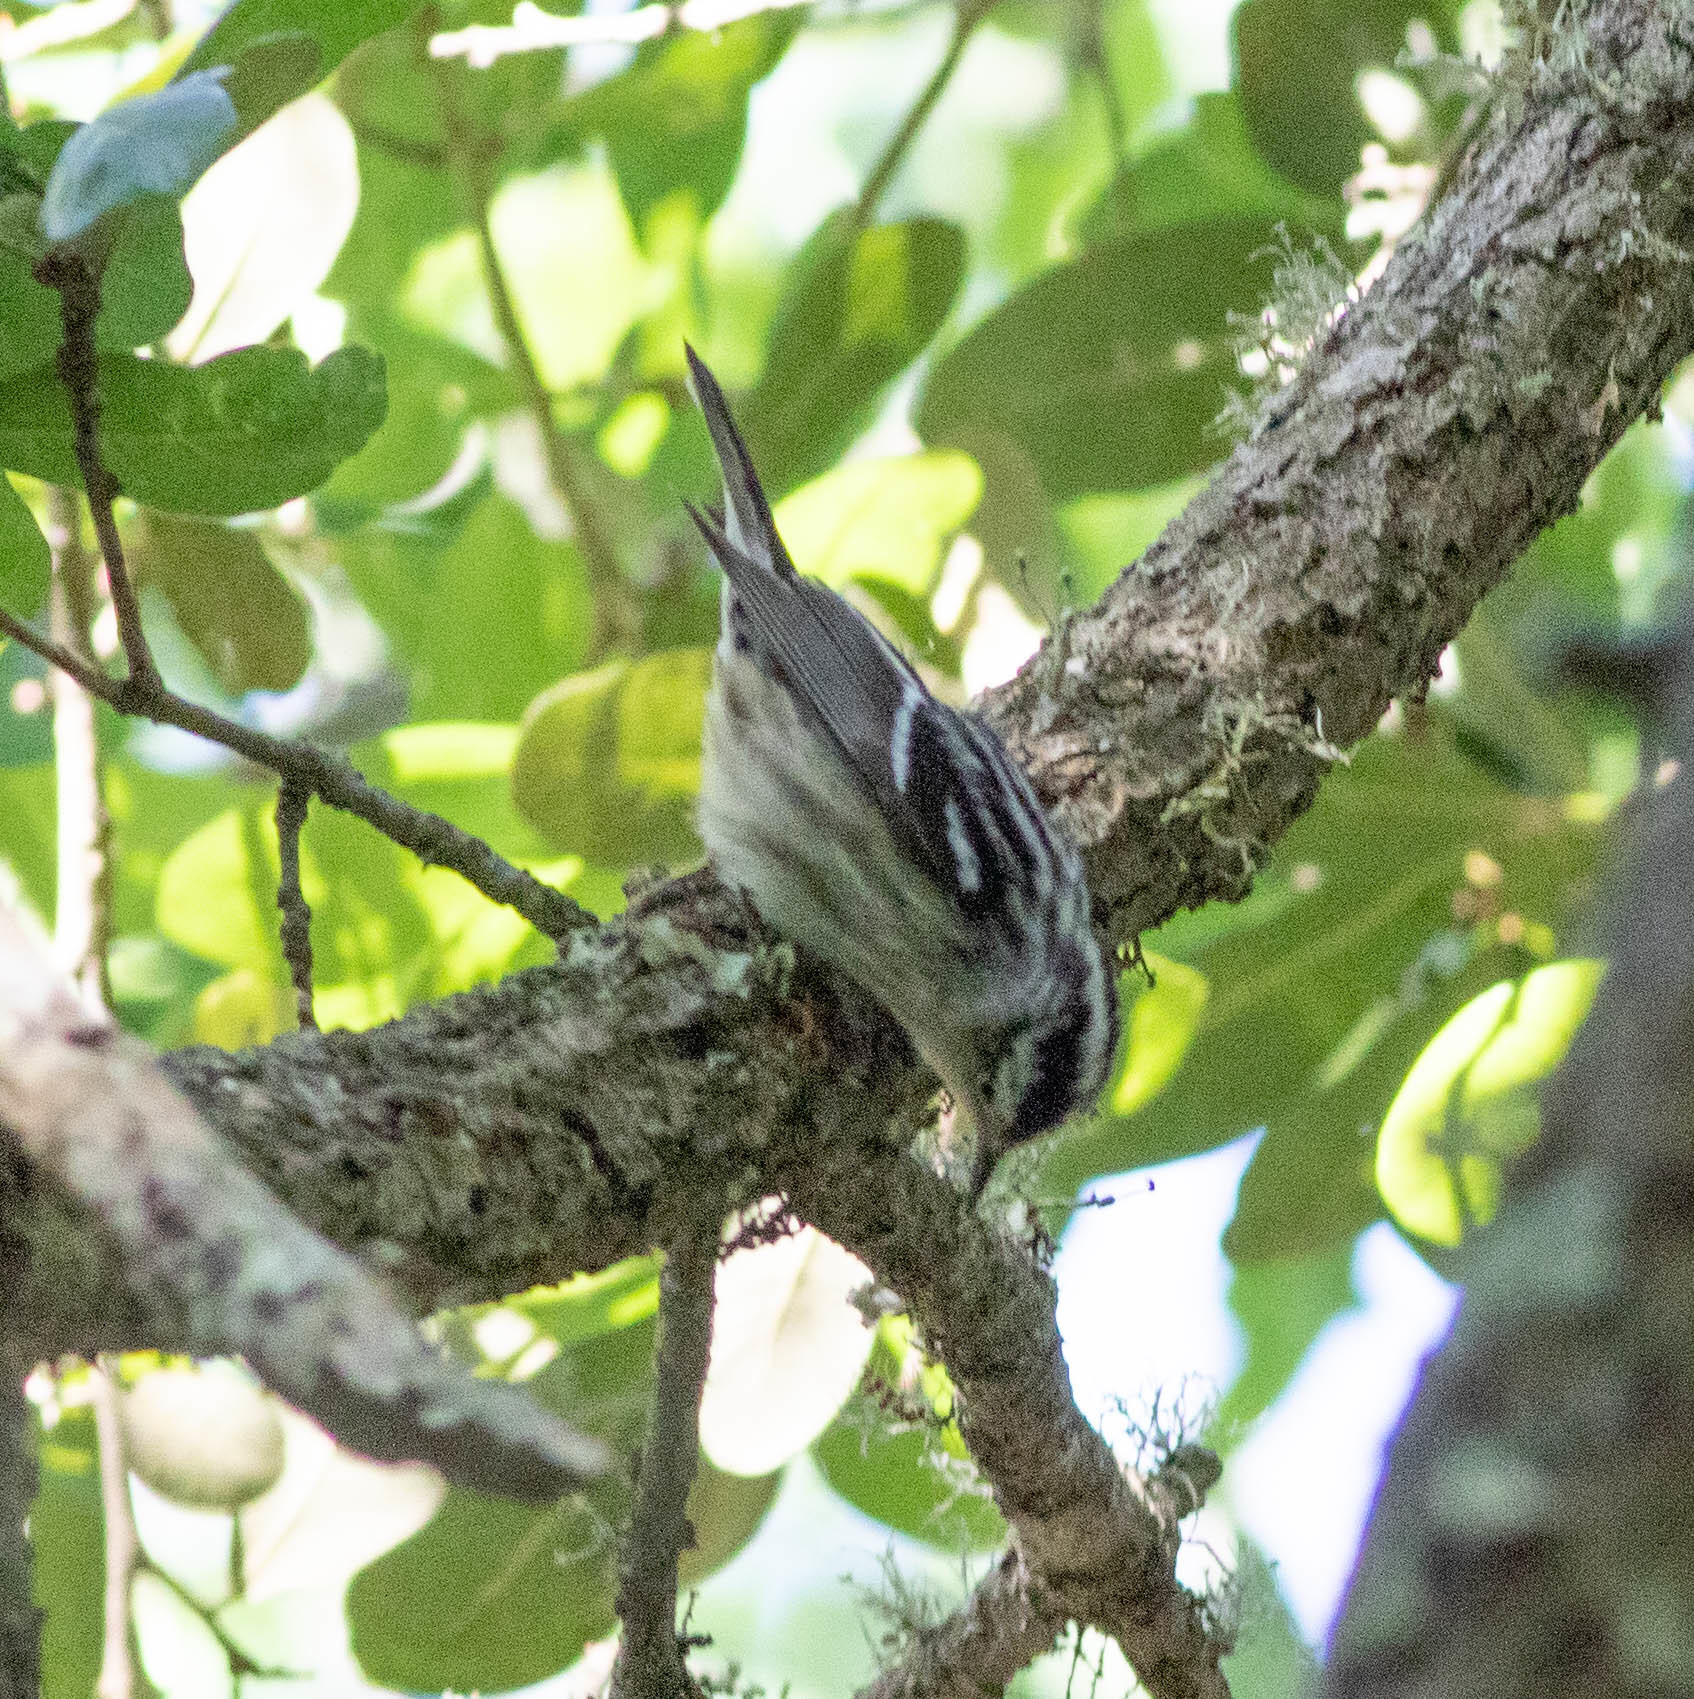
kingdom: Animalia
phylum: Chordata
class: Aves
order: Passeriformes
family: Parulidae
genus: Mniotilta
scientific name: Mniotilta varia
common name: Black-and-white warbler
